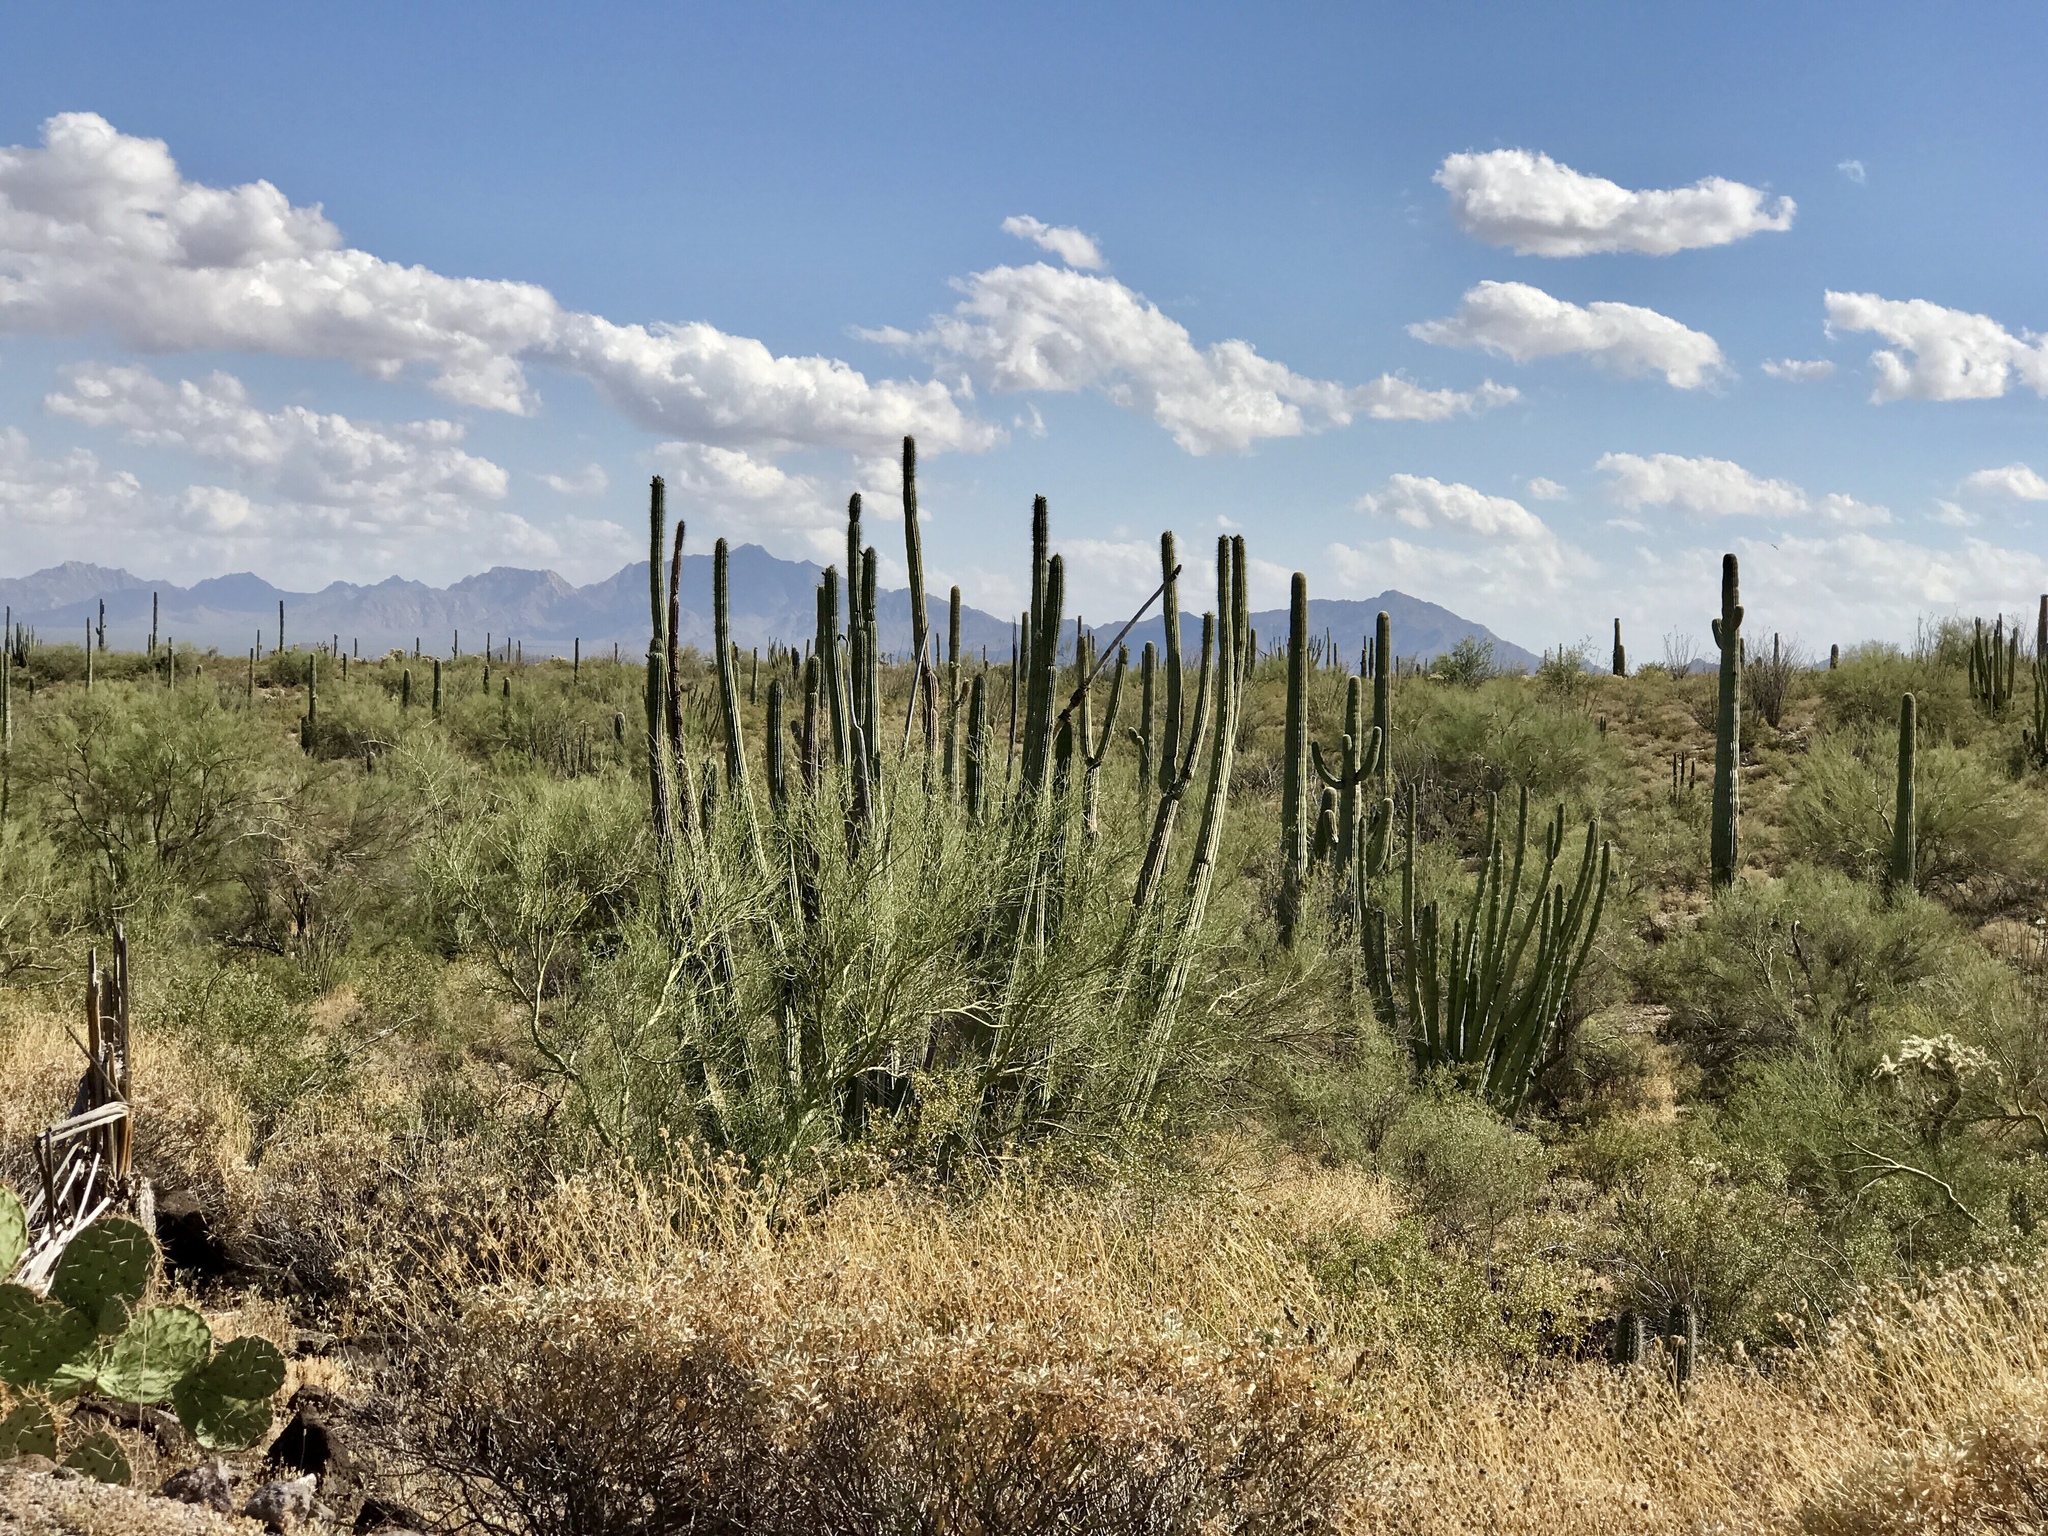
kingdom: Plantae
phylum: Tracheophyta
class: Magnoliopsida
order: Caryophyllales
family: Cactaceae
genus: Stenocereus
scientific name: Stenocereus thurberi
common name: Organ pipe cactus
